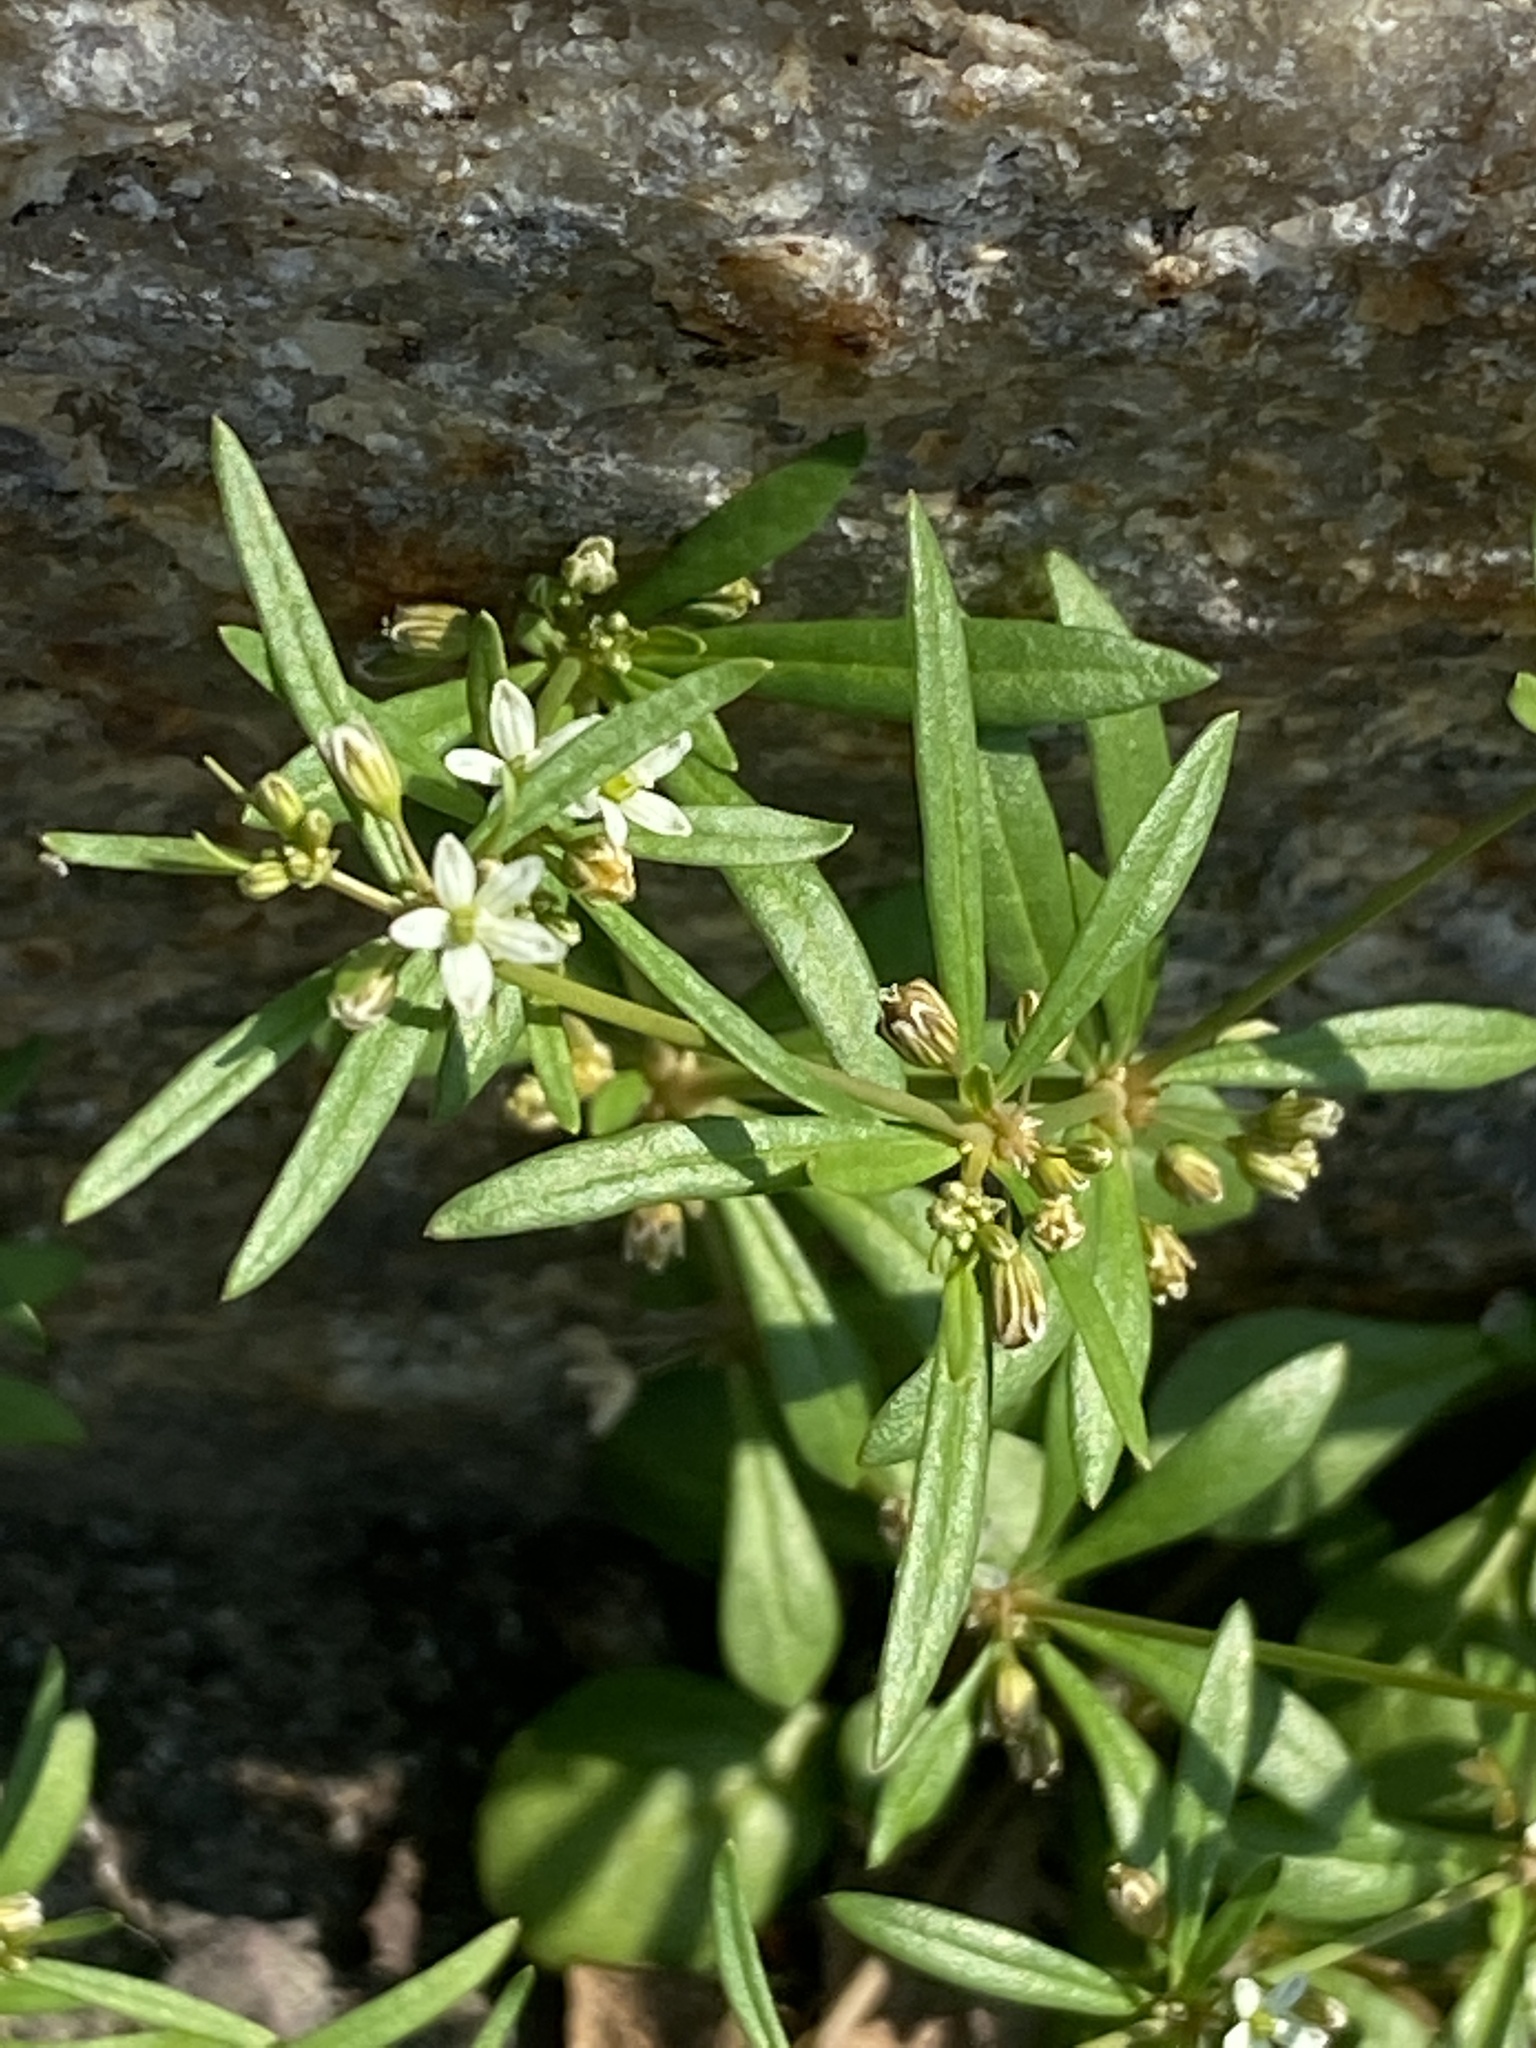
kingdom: Plantae
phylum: Tracheophyta
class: Magnoliopsida
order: Caryophyllales
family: Molluginaceae
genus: Mollugo
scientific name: Mollugo verticillata
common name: Green carpetweed
